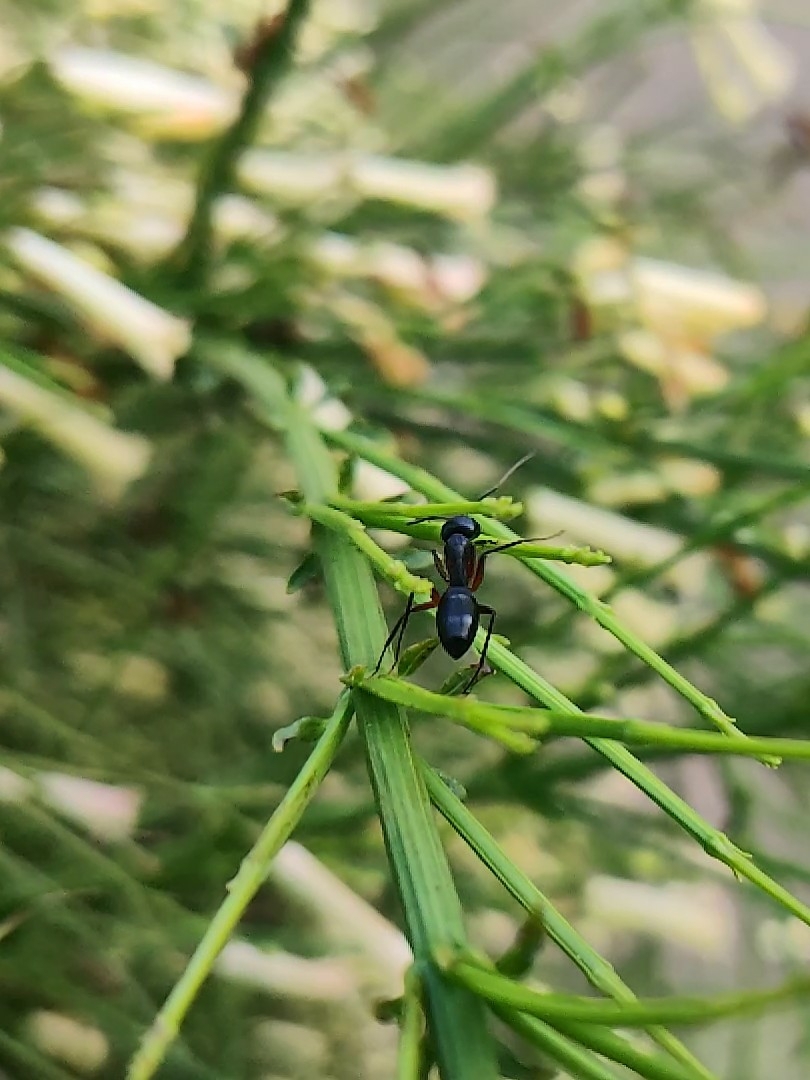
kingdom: Animalia
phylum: Arthropoda
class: Insecta
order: Hymenoptera
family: Formicidae
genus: Camponotus
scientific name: Camponotus compressus
